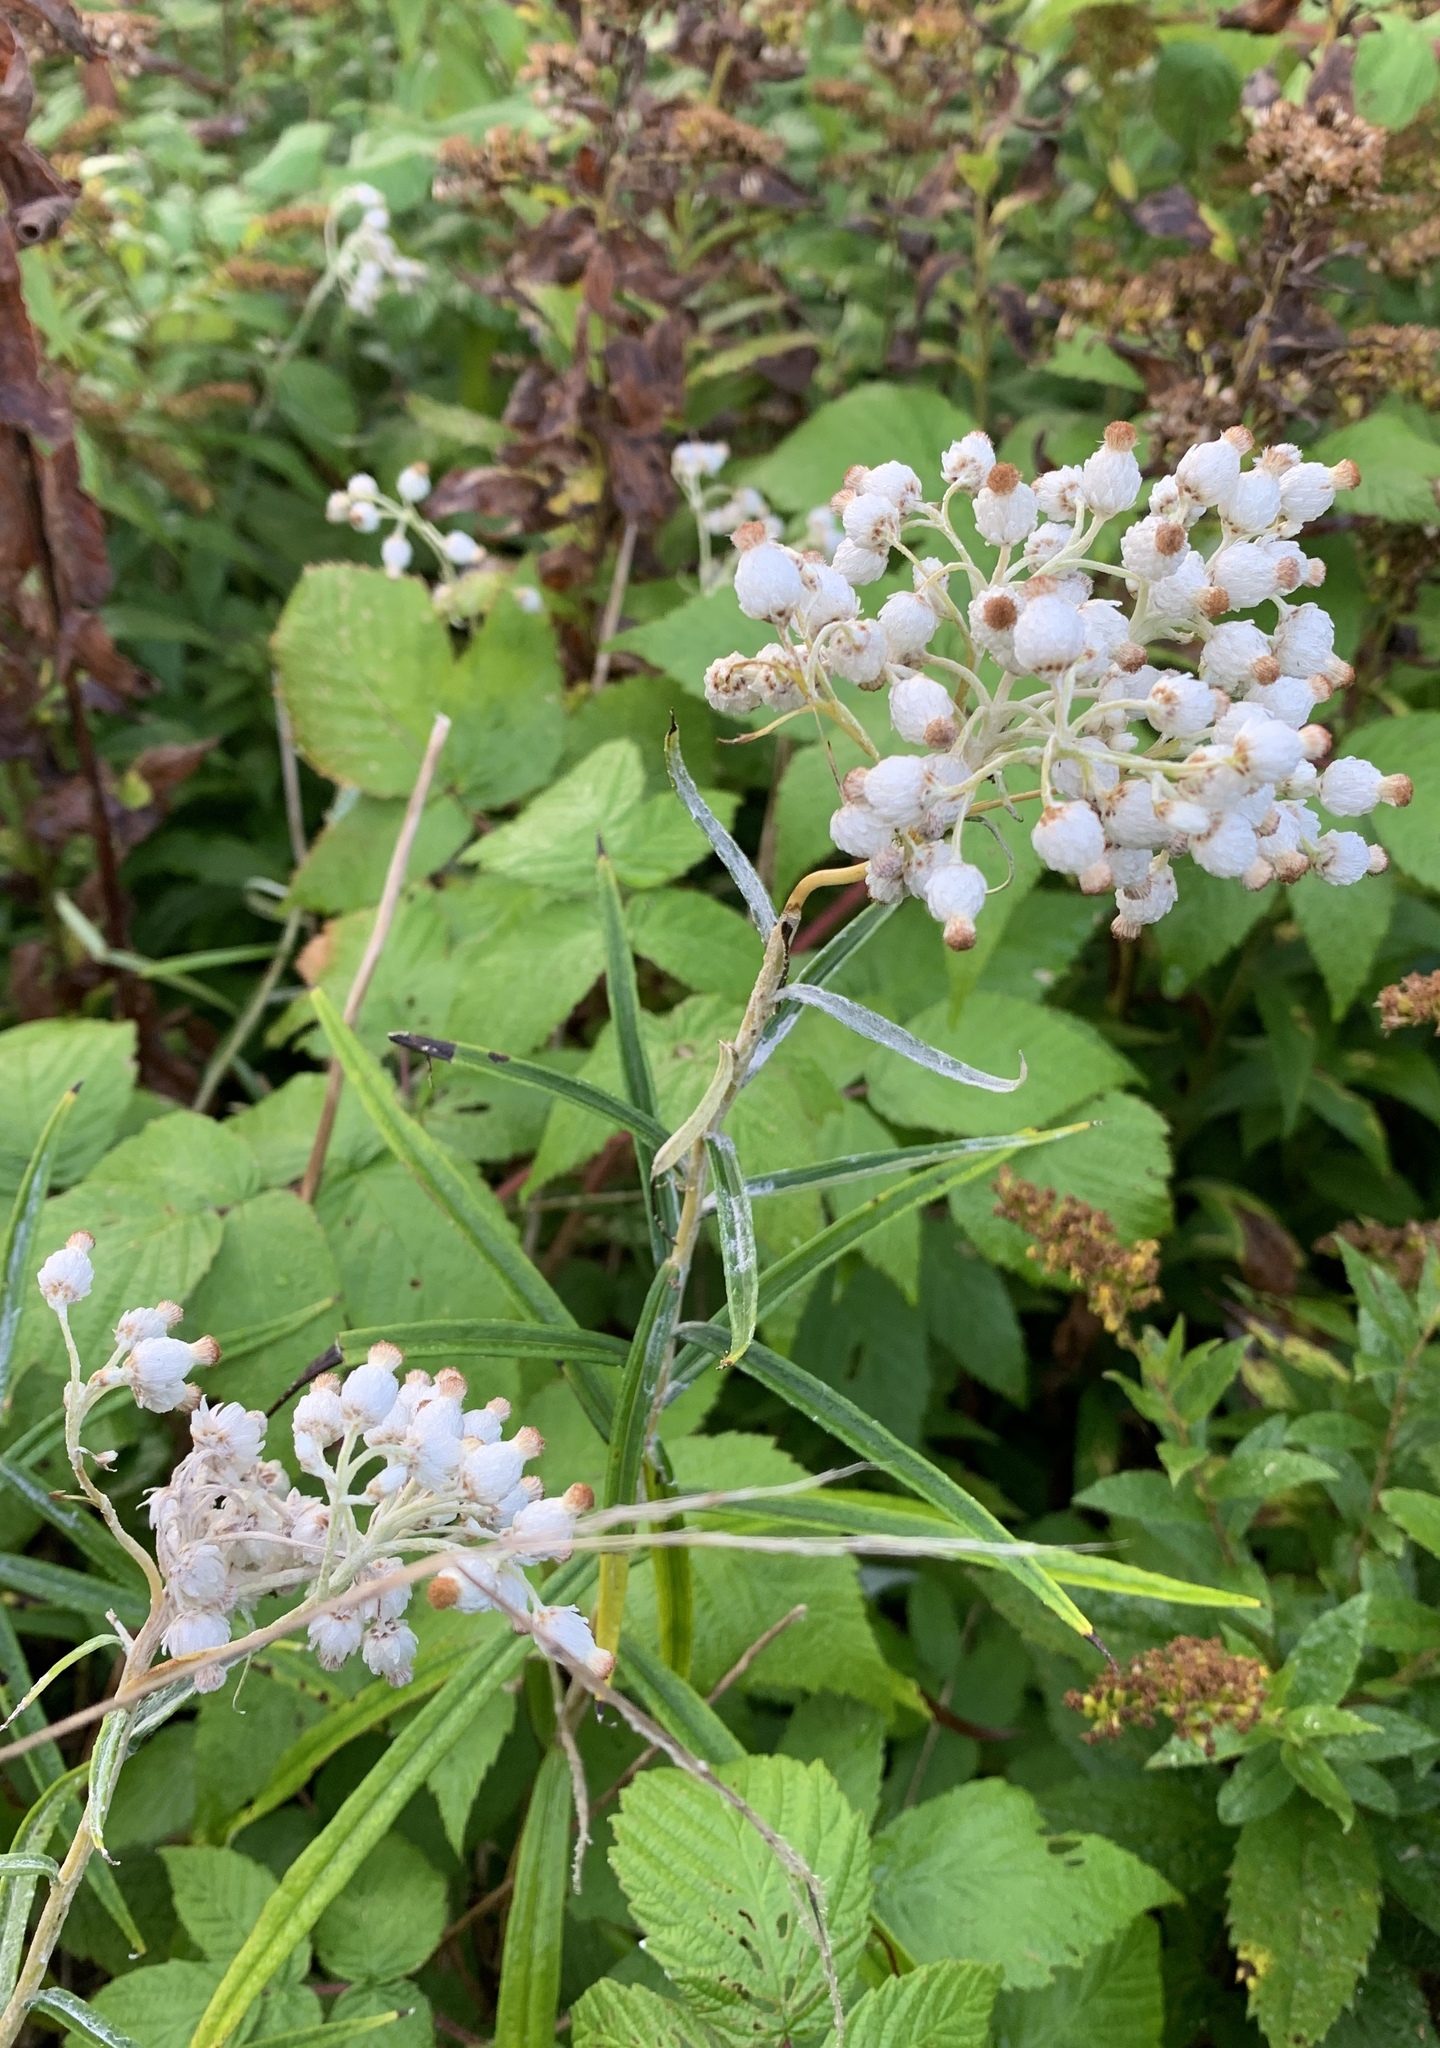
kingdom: Plantae
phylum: Tracheophyta
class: Magnoliopsida
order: Asterales
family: Asteraceae
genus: Anaphalis
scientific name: Anaphalis margaritacea
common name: Pearly everlasting
